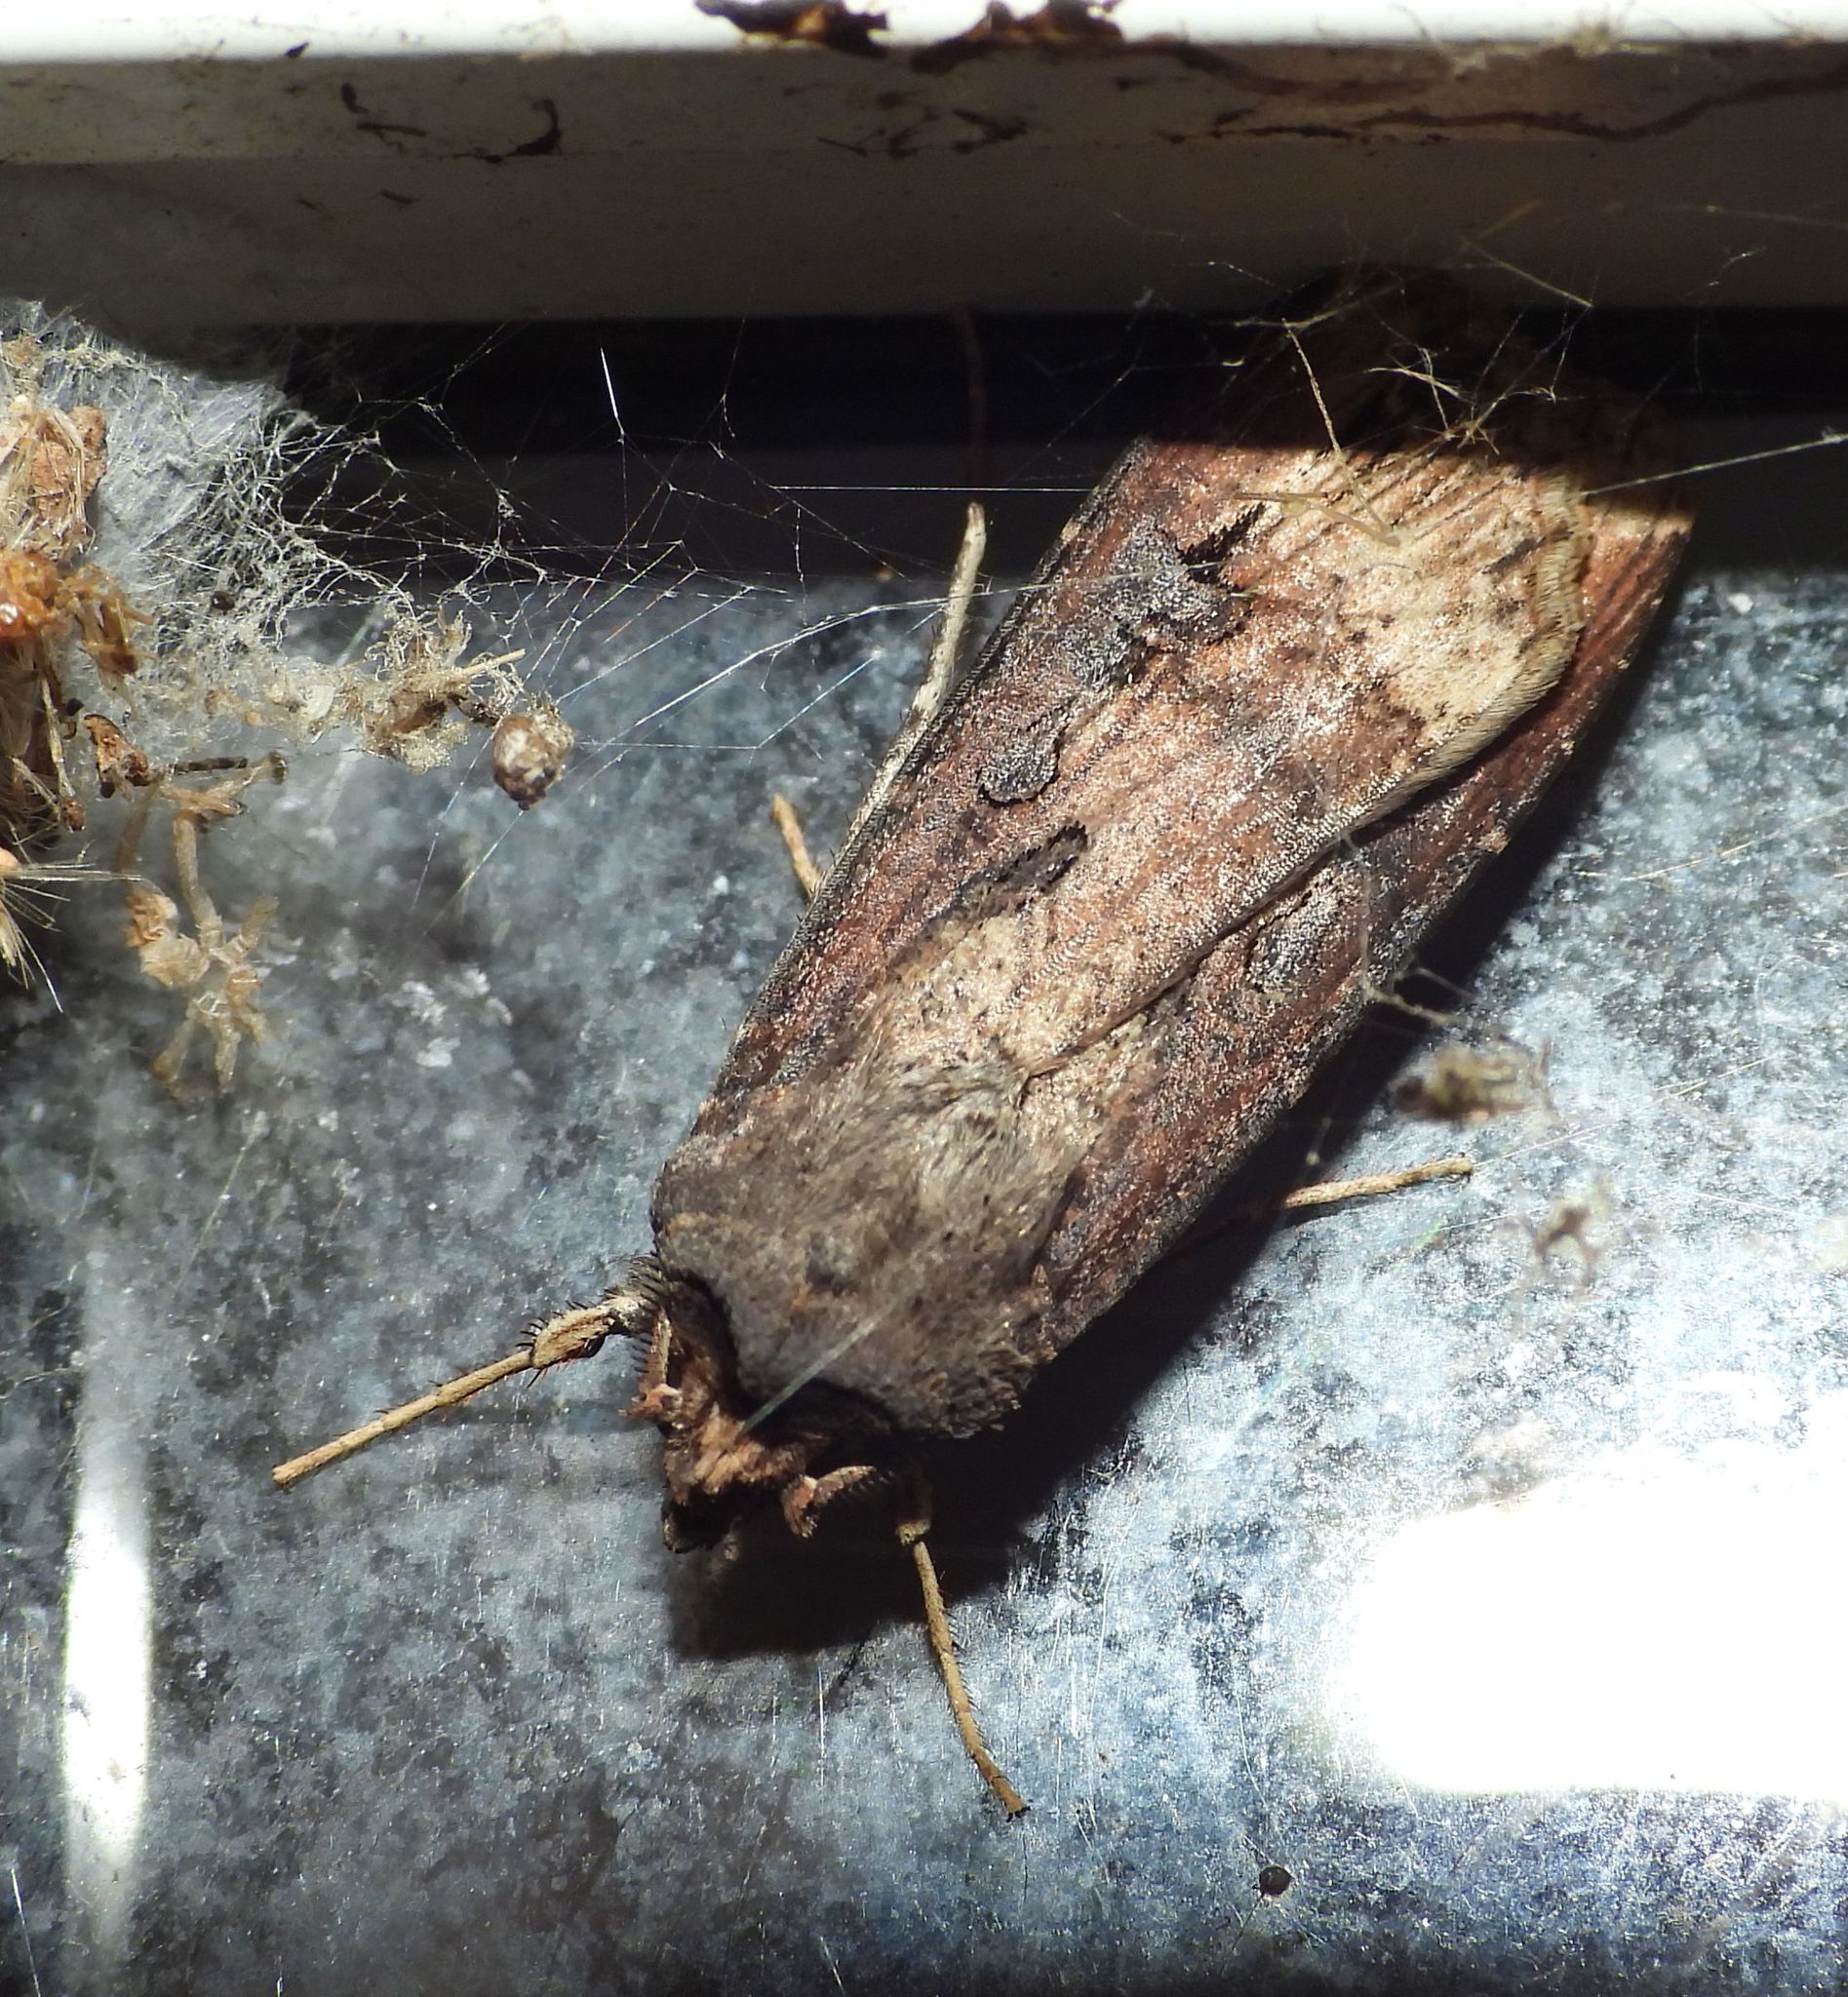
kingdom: Animalia
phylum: Arthropoda
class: Insecta
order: Lepidoptera
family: Noctuidae
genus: Agrotis
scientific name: Agrotis ipsilon
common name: Dark sword-grass
